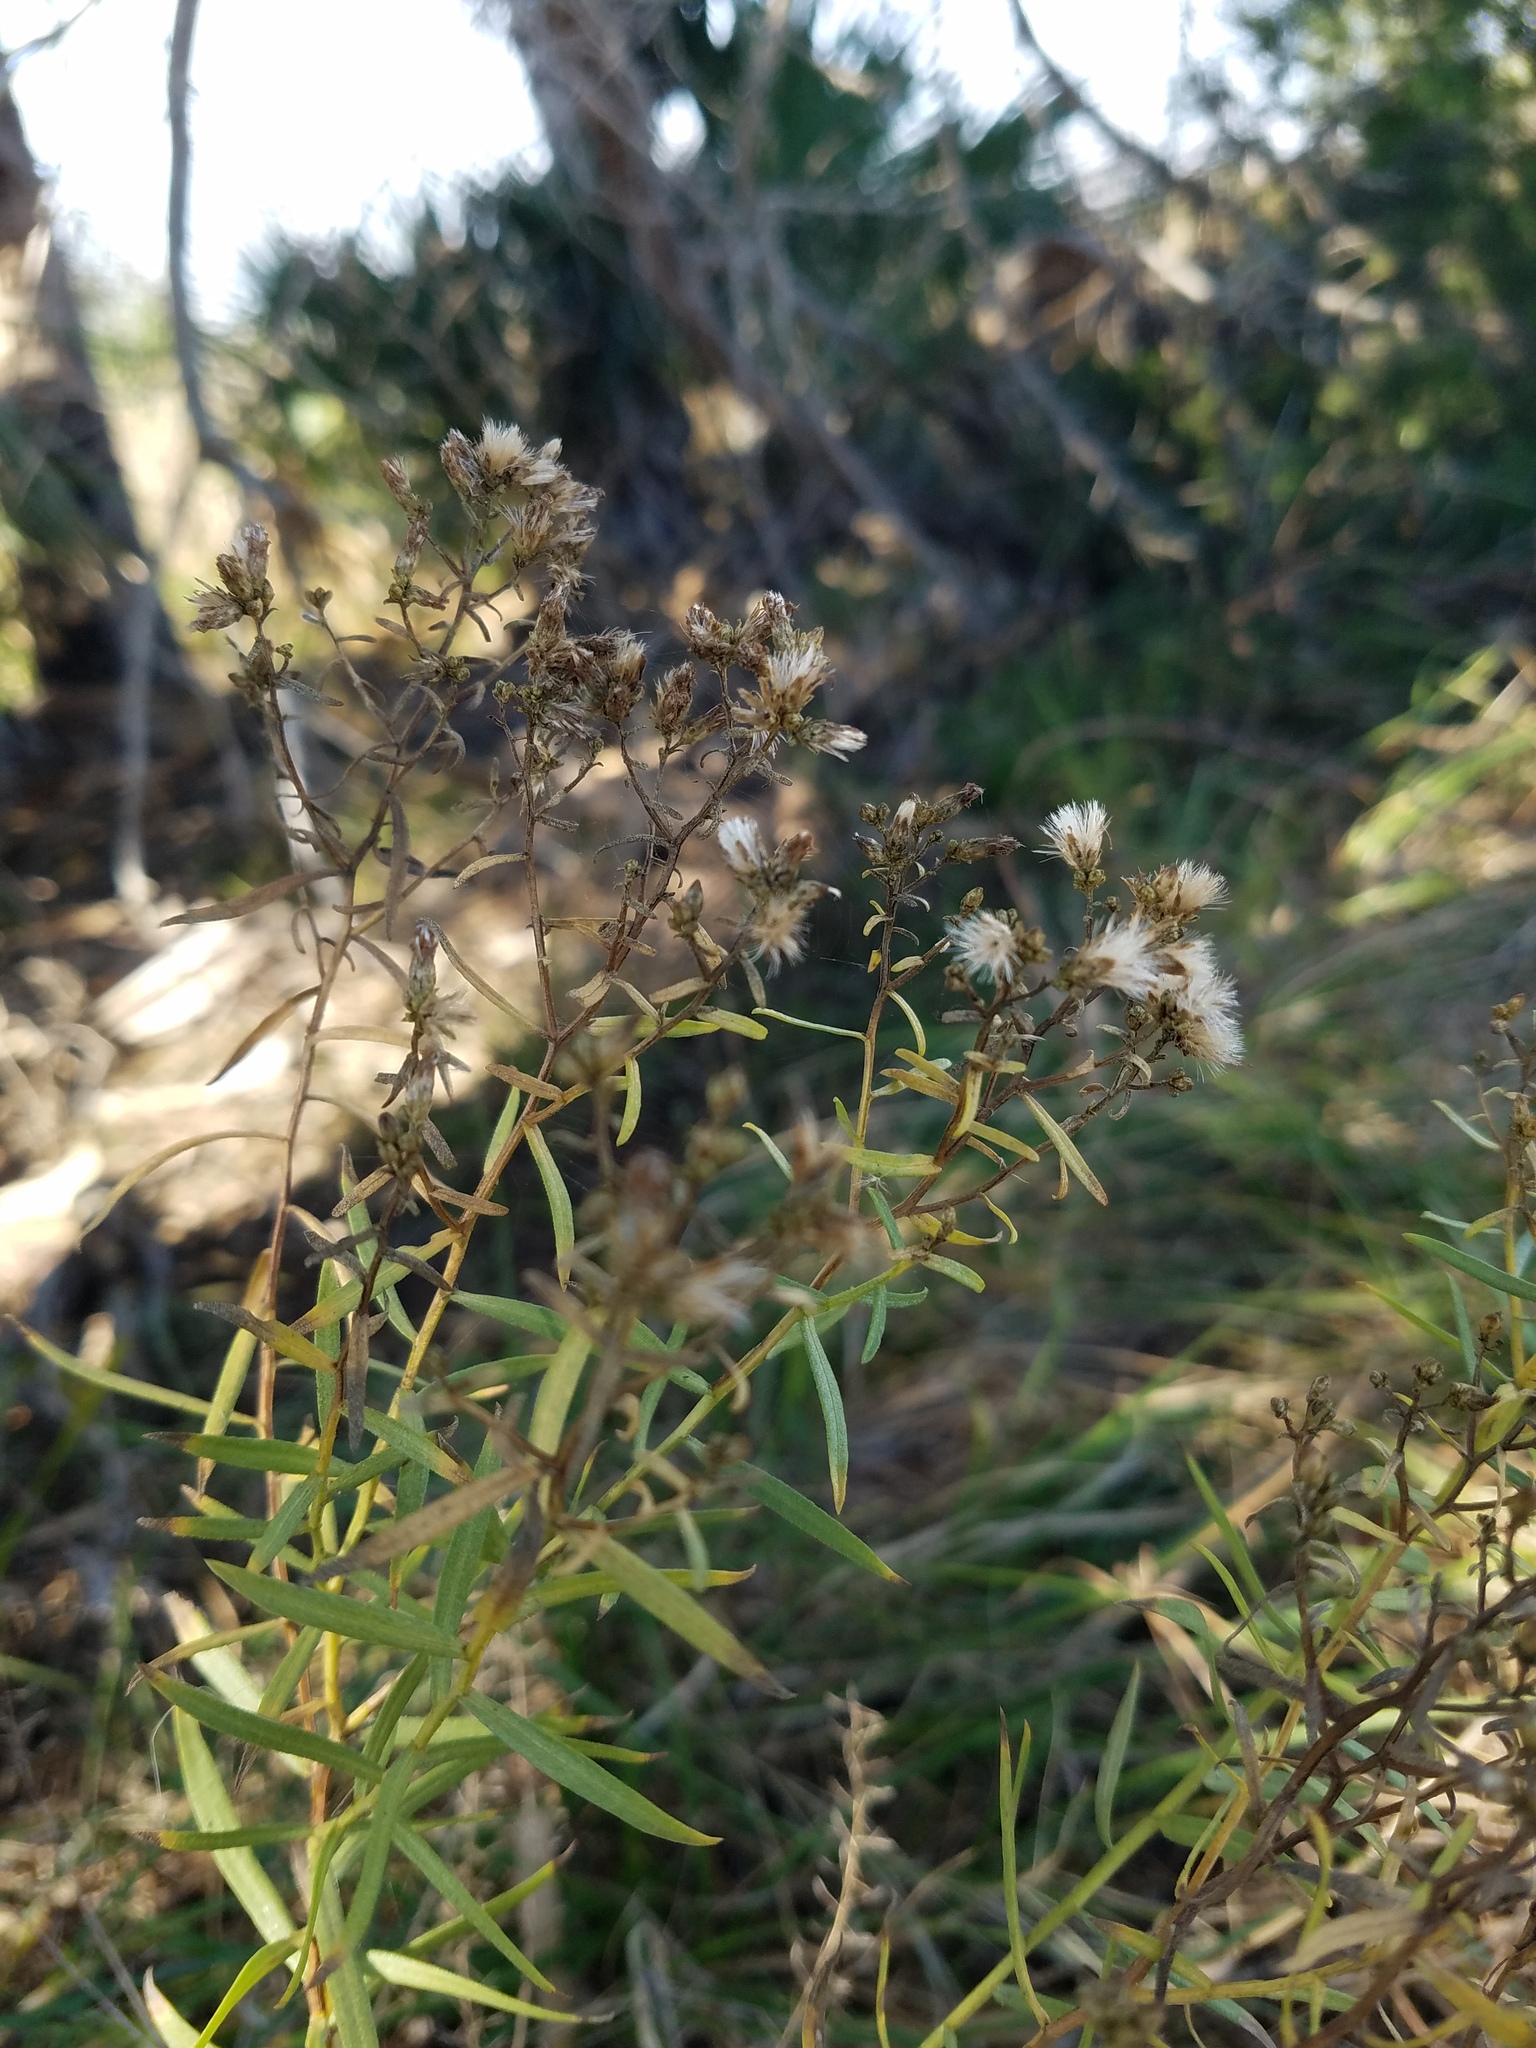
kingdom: Plantae
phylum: Tracheophyta
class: Magnoliopsida
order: Asterales
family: Asteraceae
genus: Euthamia
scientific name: Euthamia weakleyi
